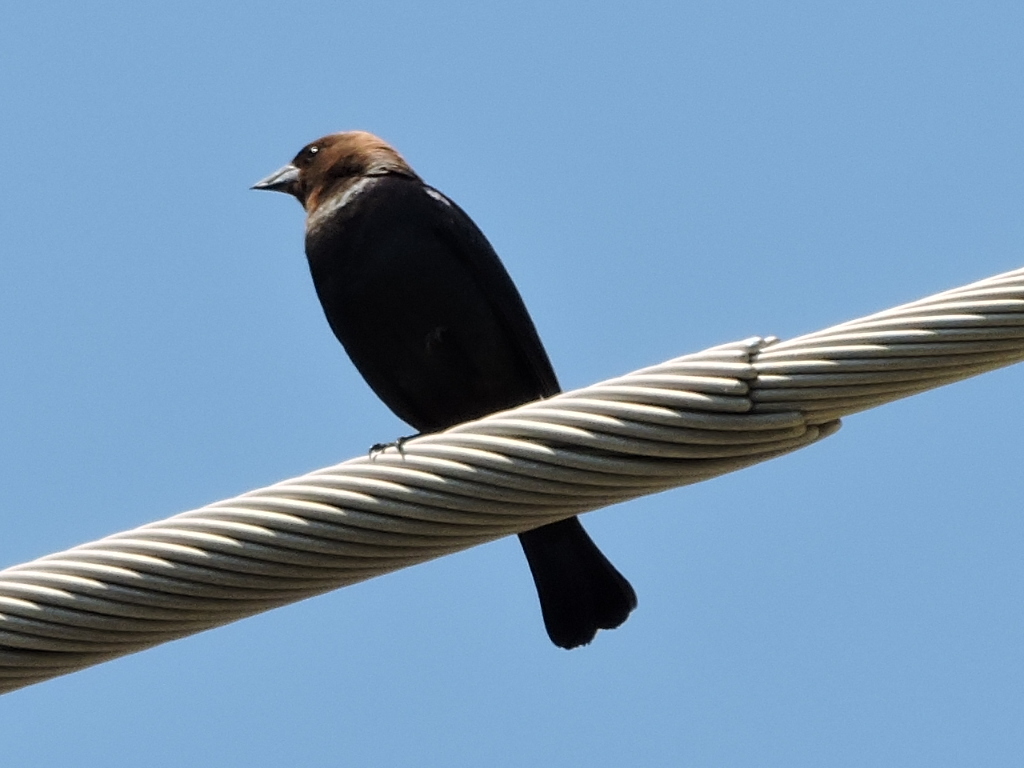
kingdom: Animalia
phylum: Chordata
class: Aves
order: Passeriformes
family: Icteridae
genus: Molothrus
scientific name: Molothrus ater
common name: Brown-headed cowbird
